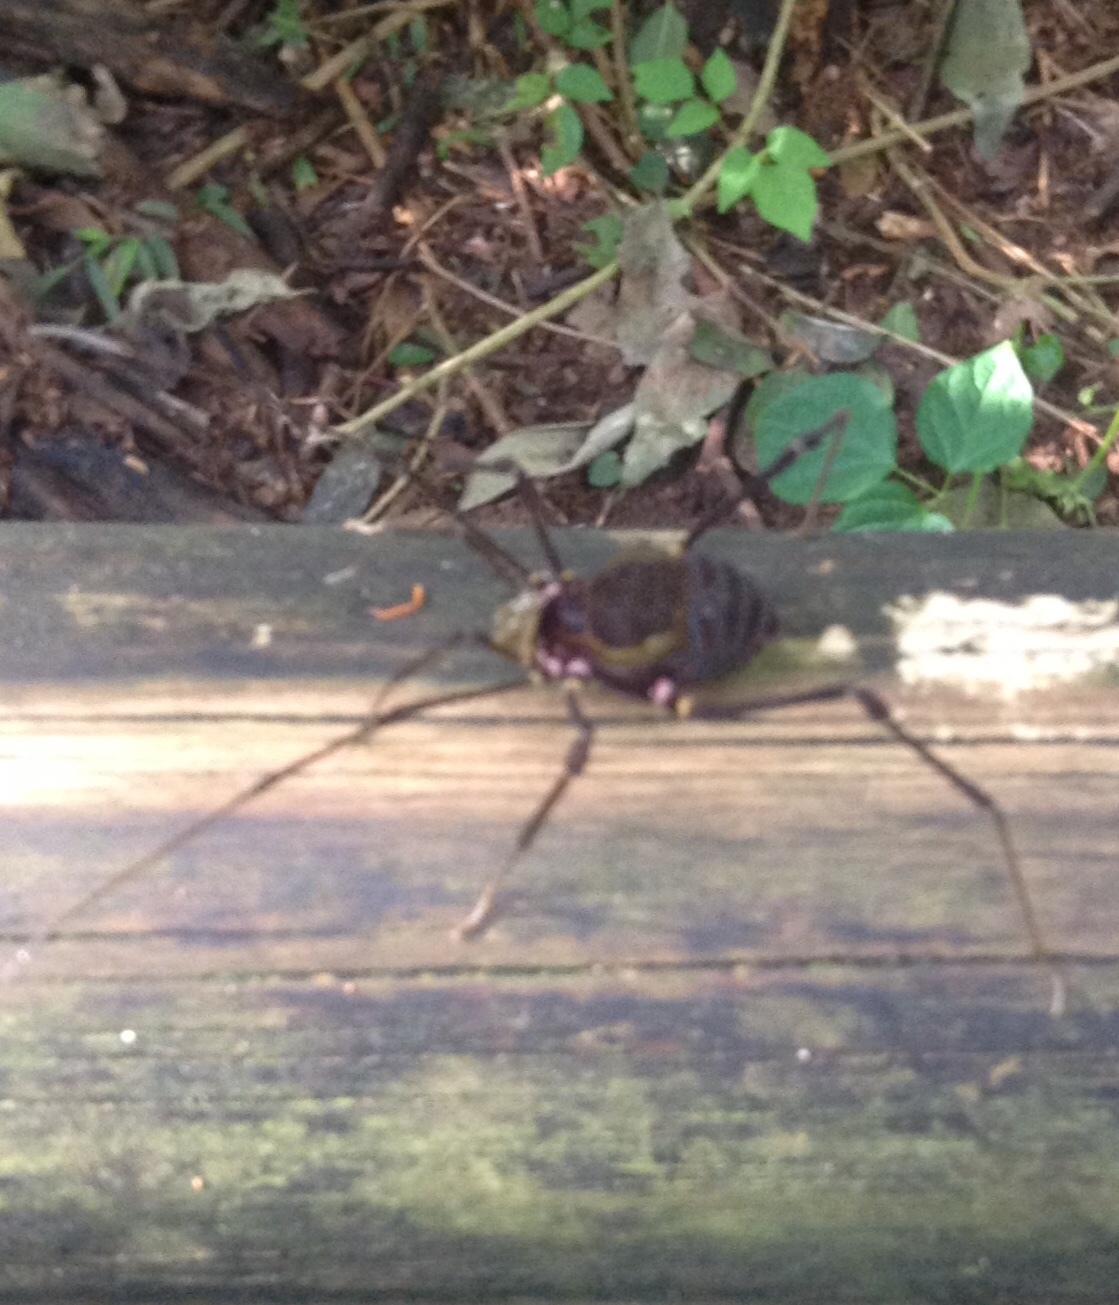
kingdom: Animalia
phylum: Arthropoda
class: Arachnida
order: Opiliones
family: Gonyleptidae
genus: Geraeocormobius
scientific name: Geraeocormobius sylvarum
